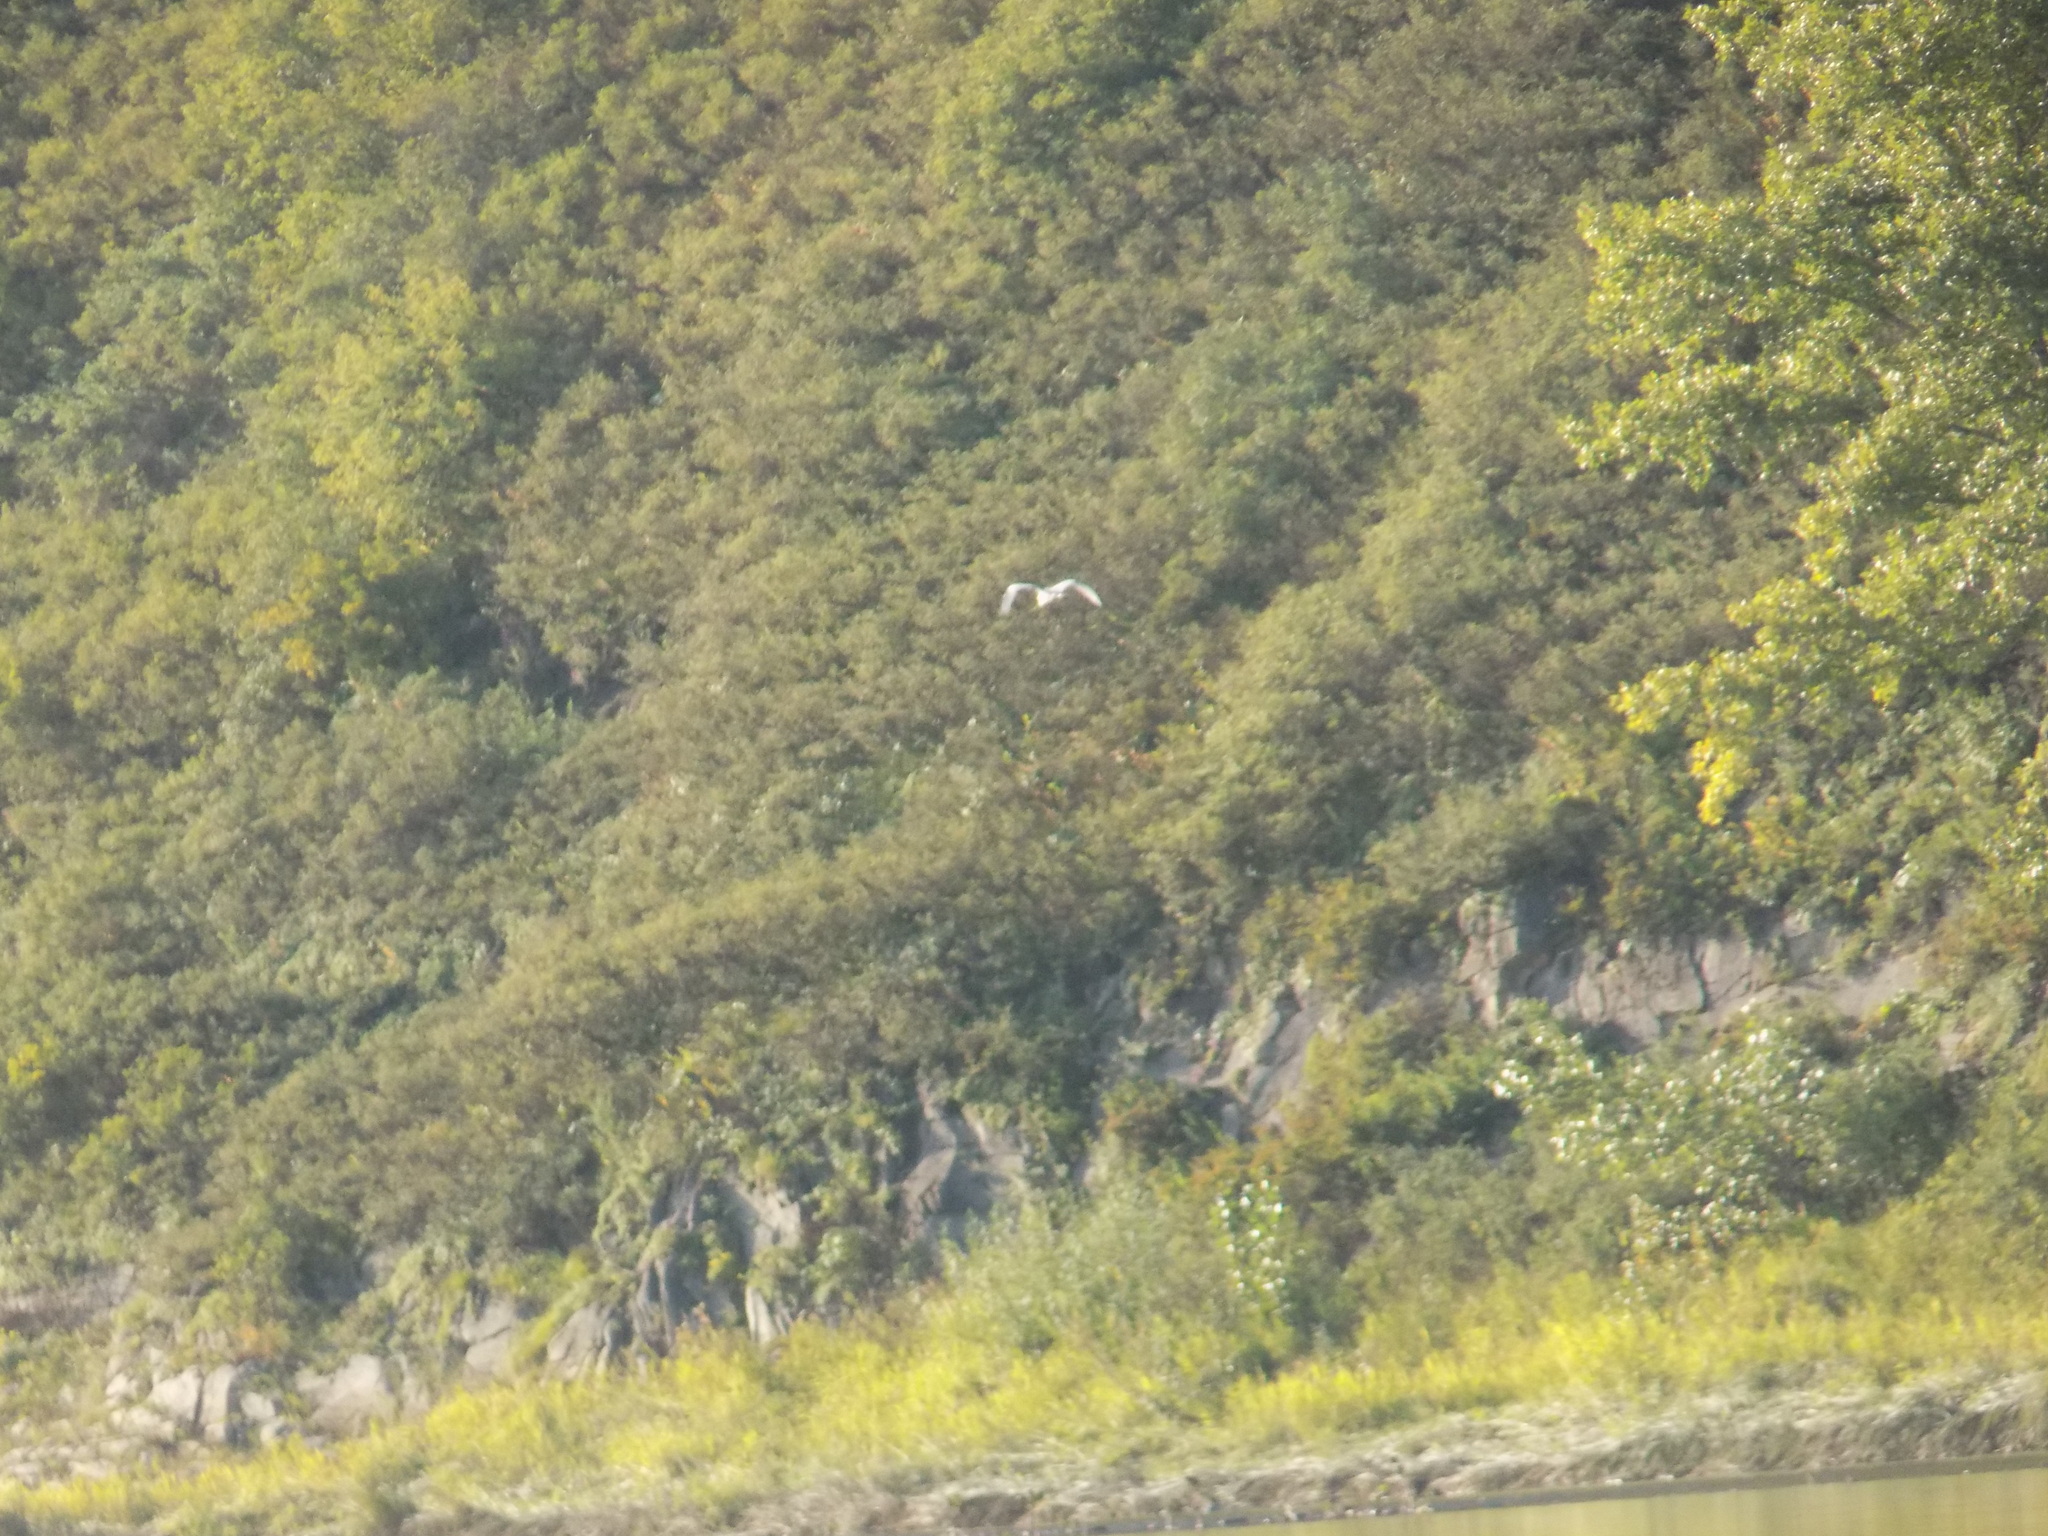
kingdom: Animalia
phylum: Chordata
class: Aves
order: Pelecaniformes
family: Ardeidae
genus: Ardea
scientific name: Ardea cinerea
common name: Grey heron
